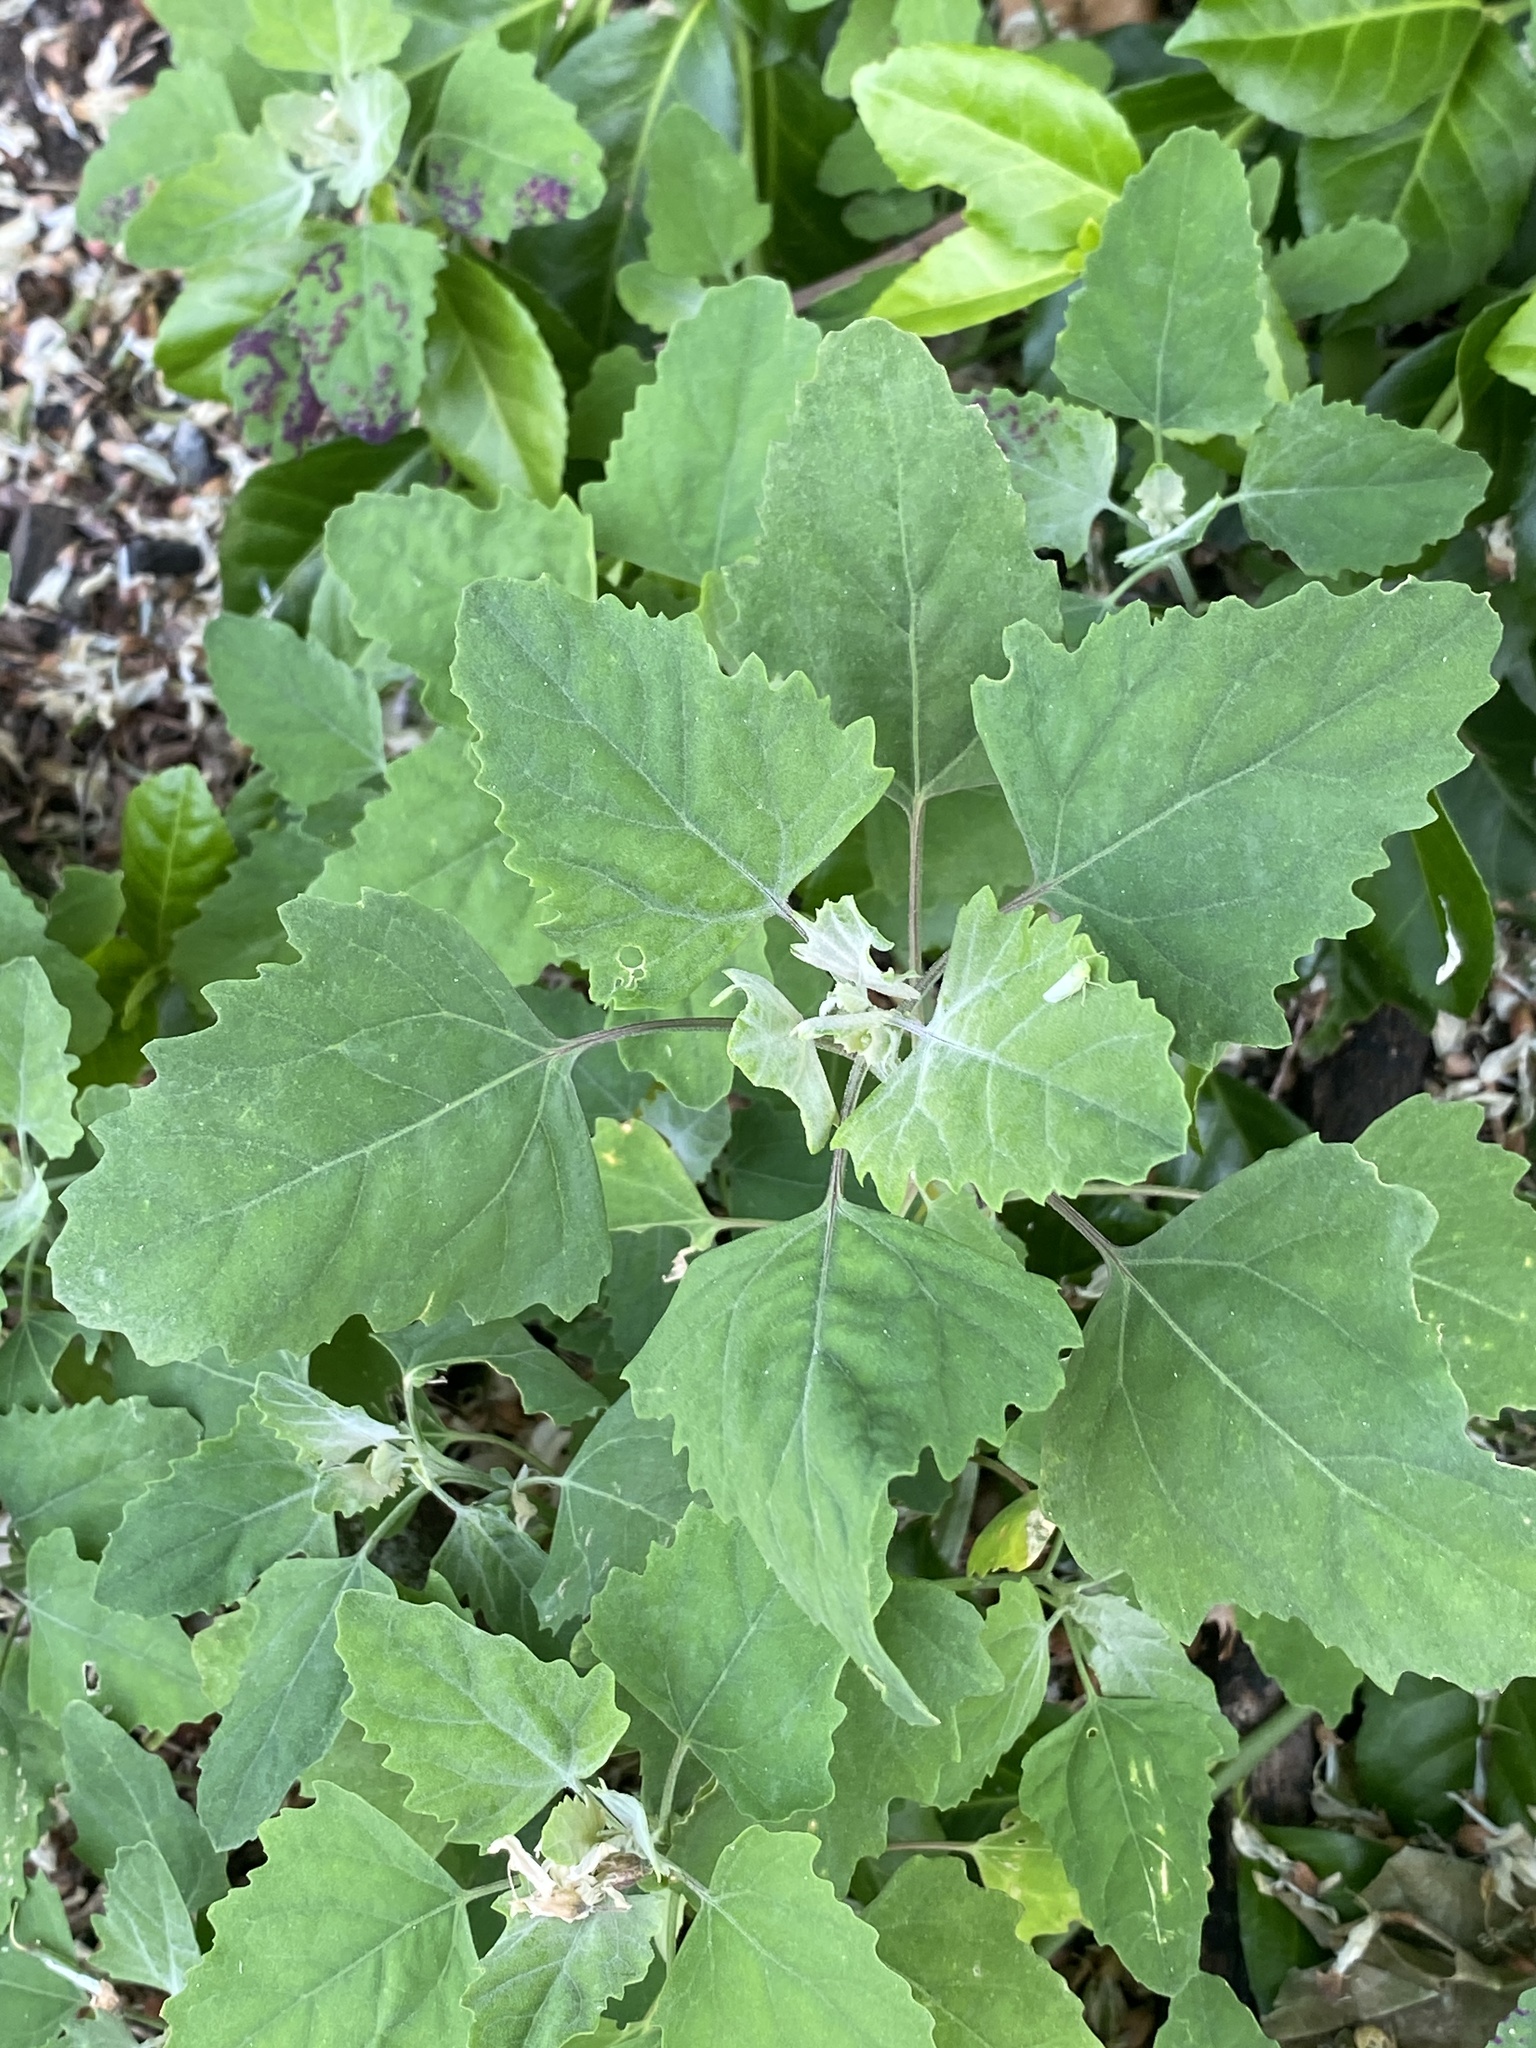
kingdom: Plantae
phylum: Tracheophyta
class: Magnoliopsida
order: Caryophyllales
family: Amaranthaceae
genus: Chenopodium
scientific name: Chenopodium album
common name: Fat-hen
